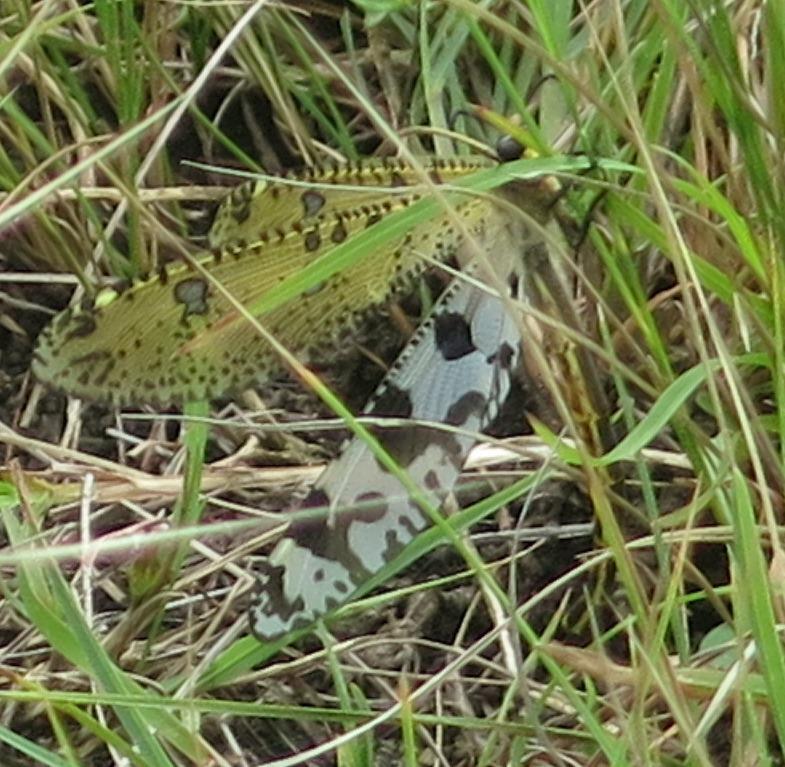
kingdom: Animalia
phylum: Arthropoda
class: Insecta
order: Neuroptera
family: Myrmeleontidae
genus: Palpares
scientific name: Palpares caffer
